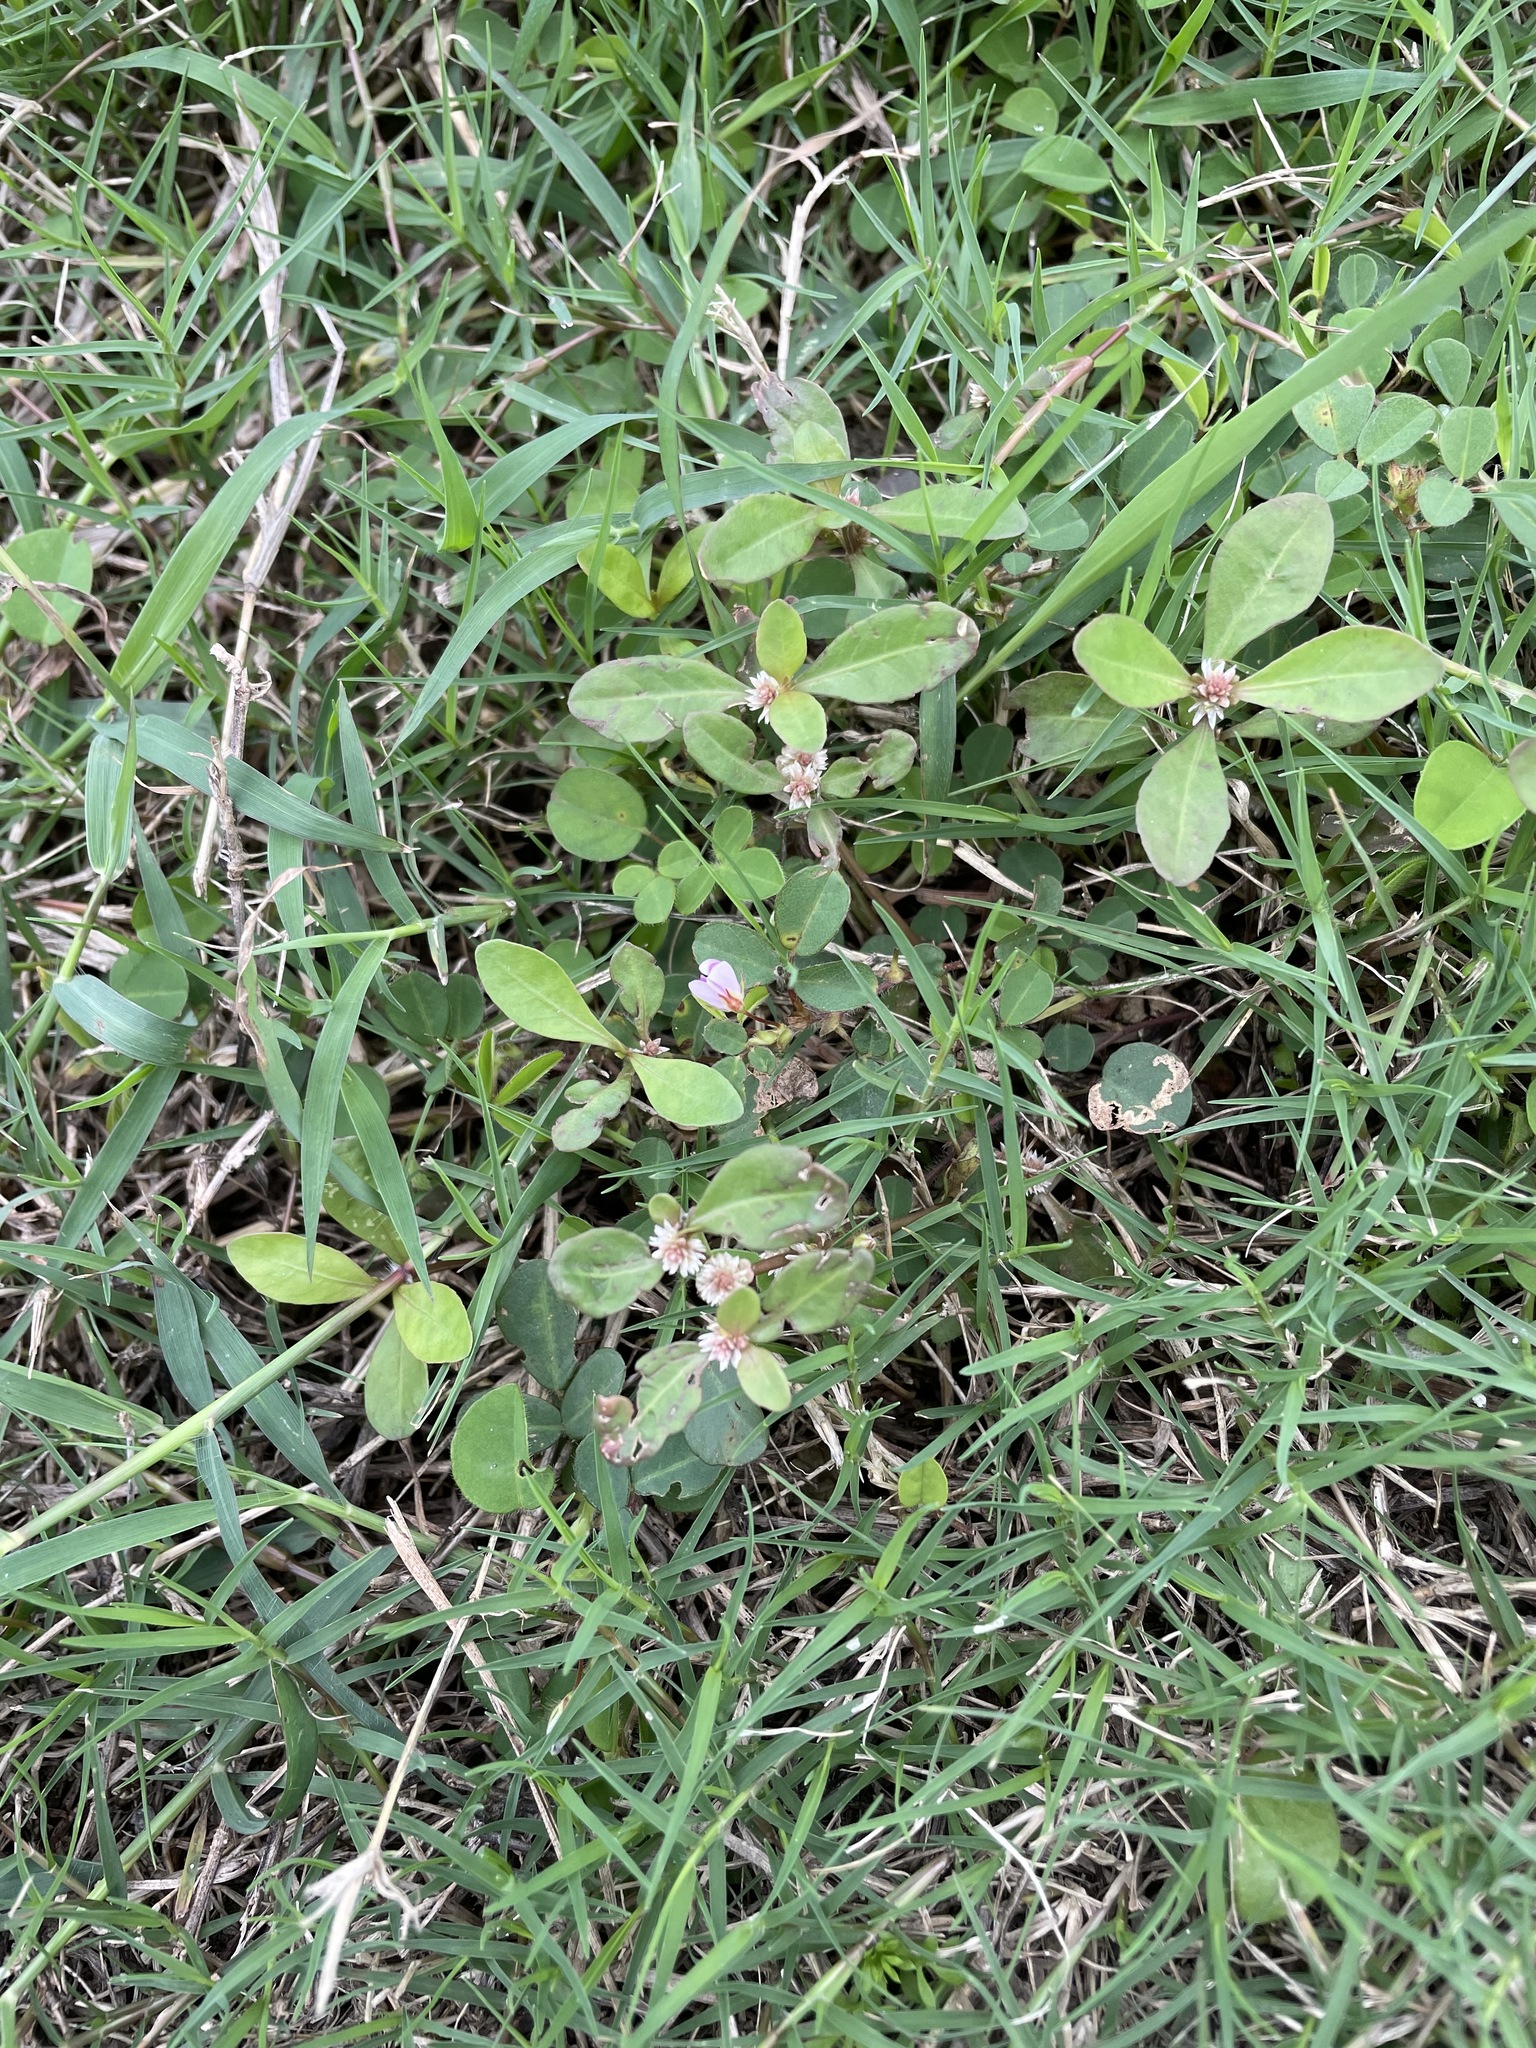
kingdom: Plantae
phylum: Tracheophyta
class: Magnoliopsida
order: Caryophyllales
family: Amaranthaceae
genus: Alternanthera
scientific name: Alternanthera sessilis
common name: Sessile joyweed
